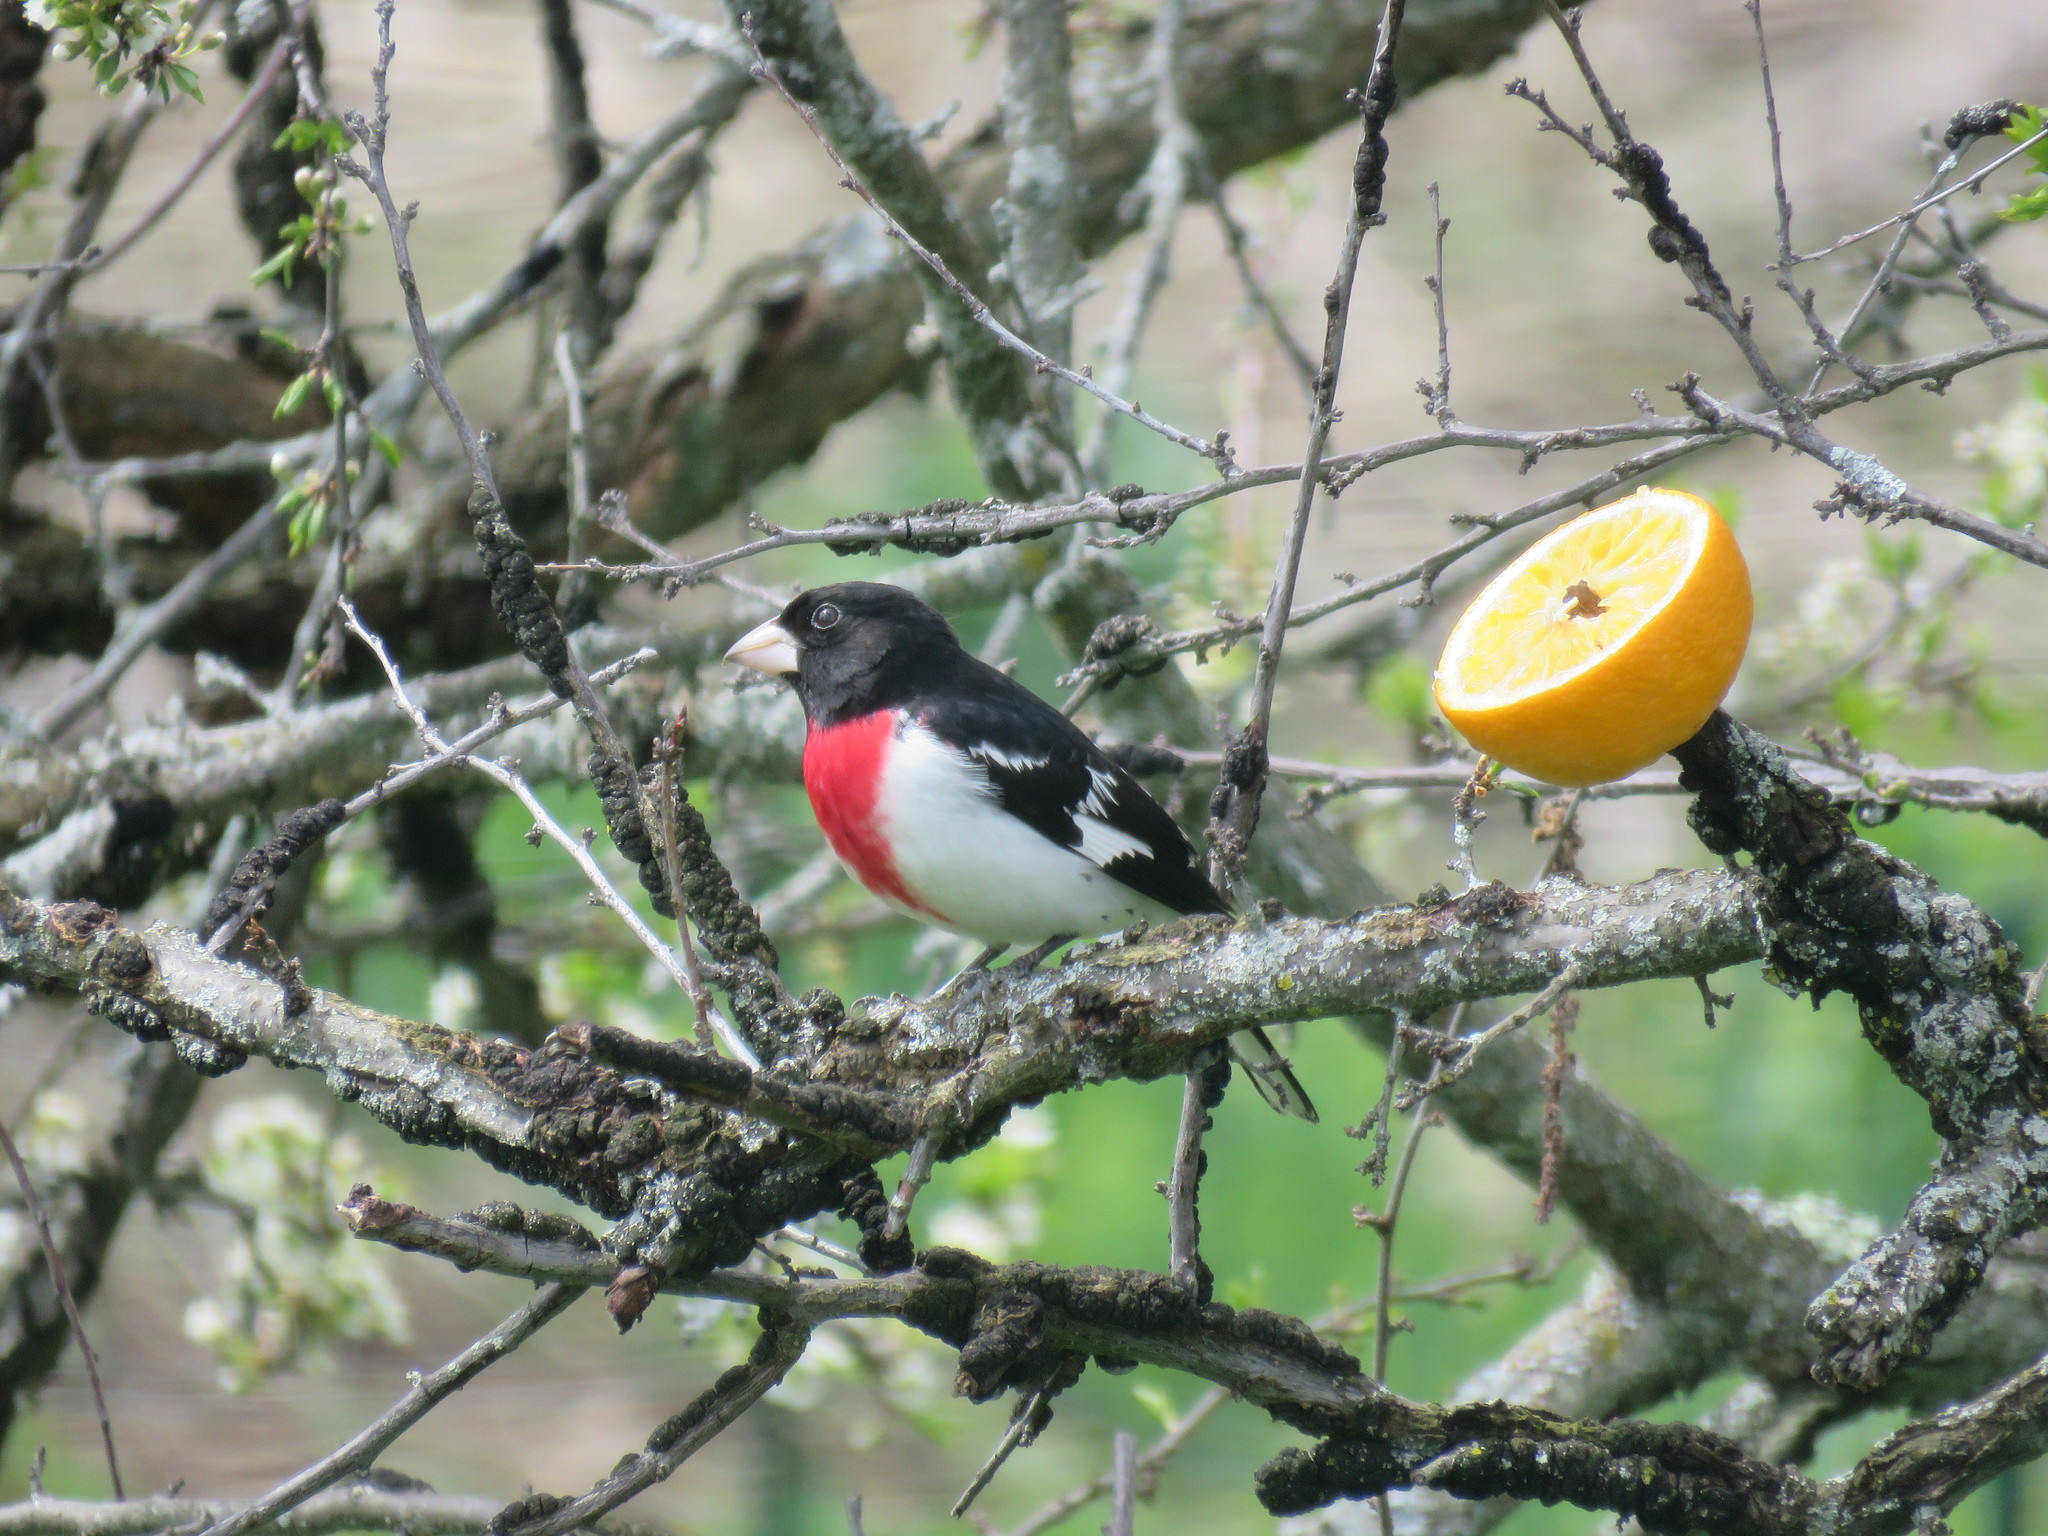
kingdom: Animalia
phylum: Chordata
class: Aves
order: Passeriformes
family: Cardinalidae
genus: Pheucticus
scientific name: Pheucticus ludovicianus
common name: Rose-breasted grosbeak
